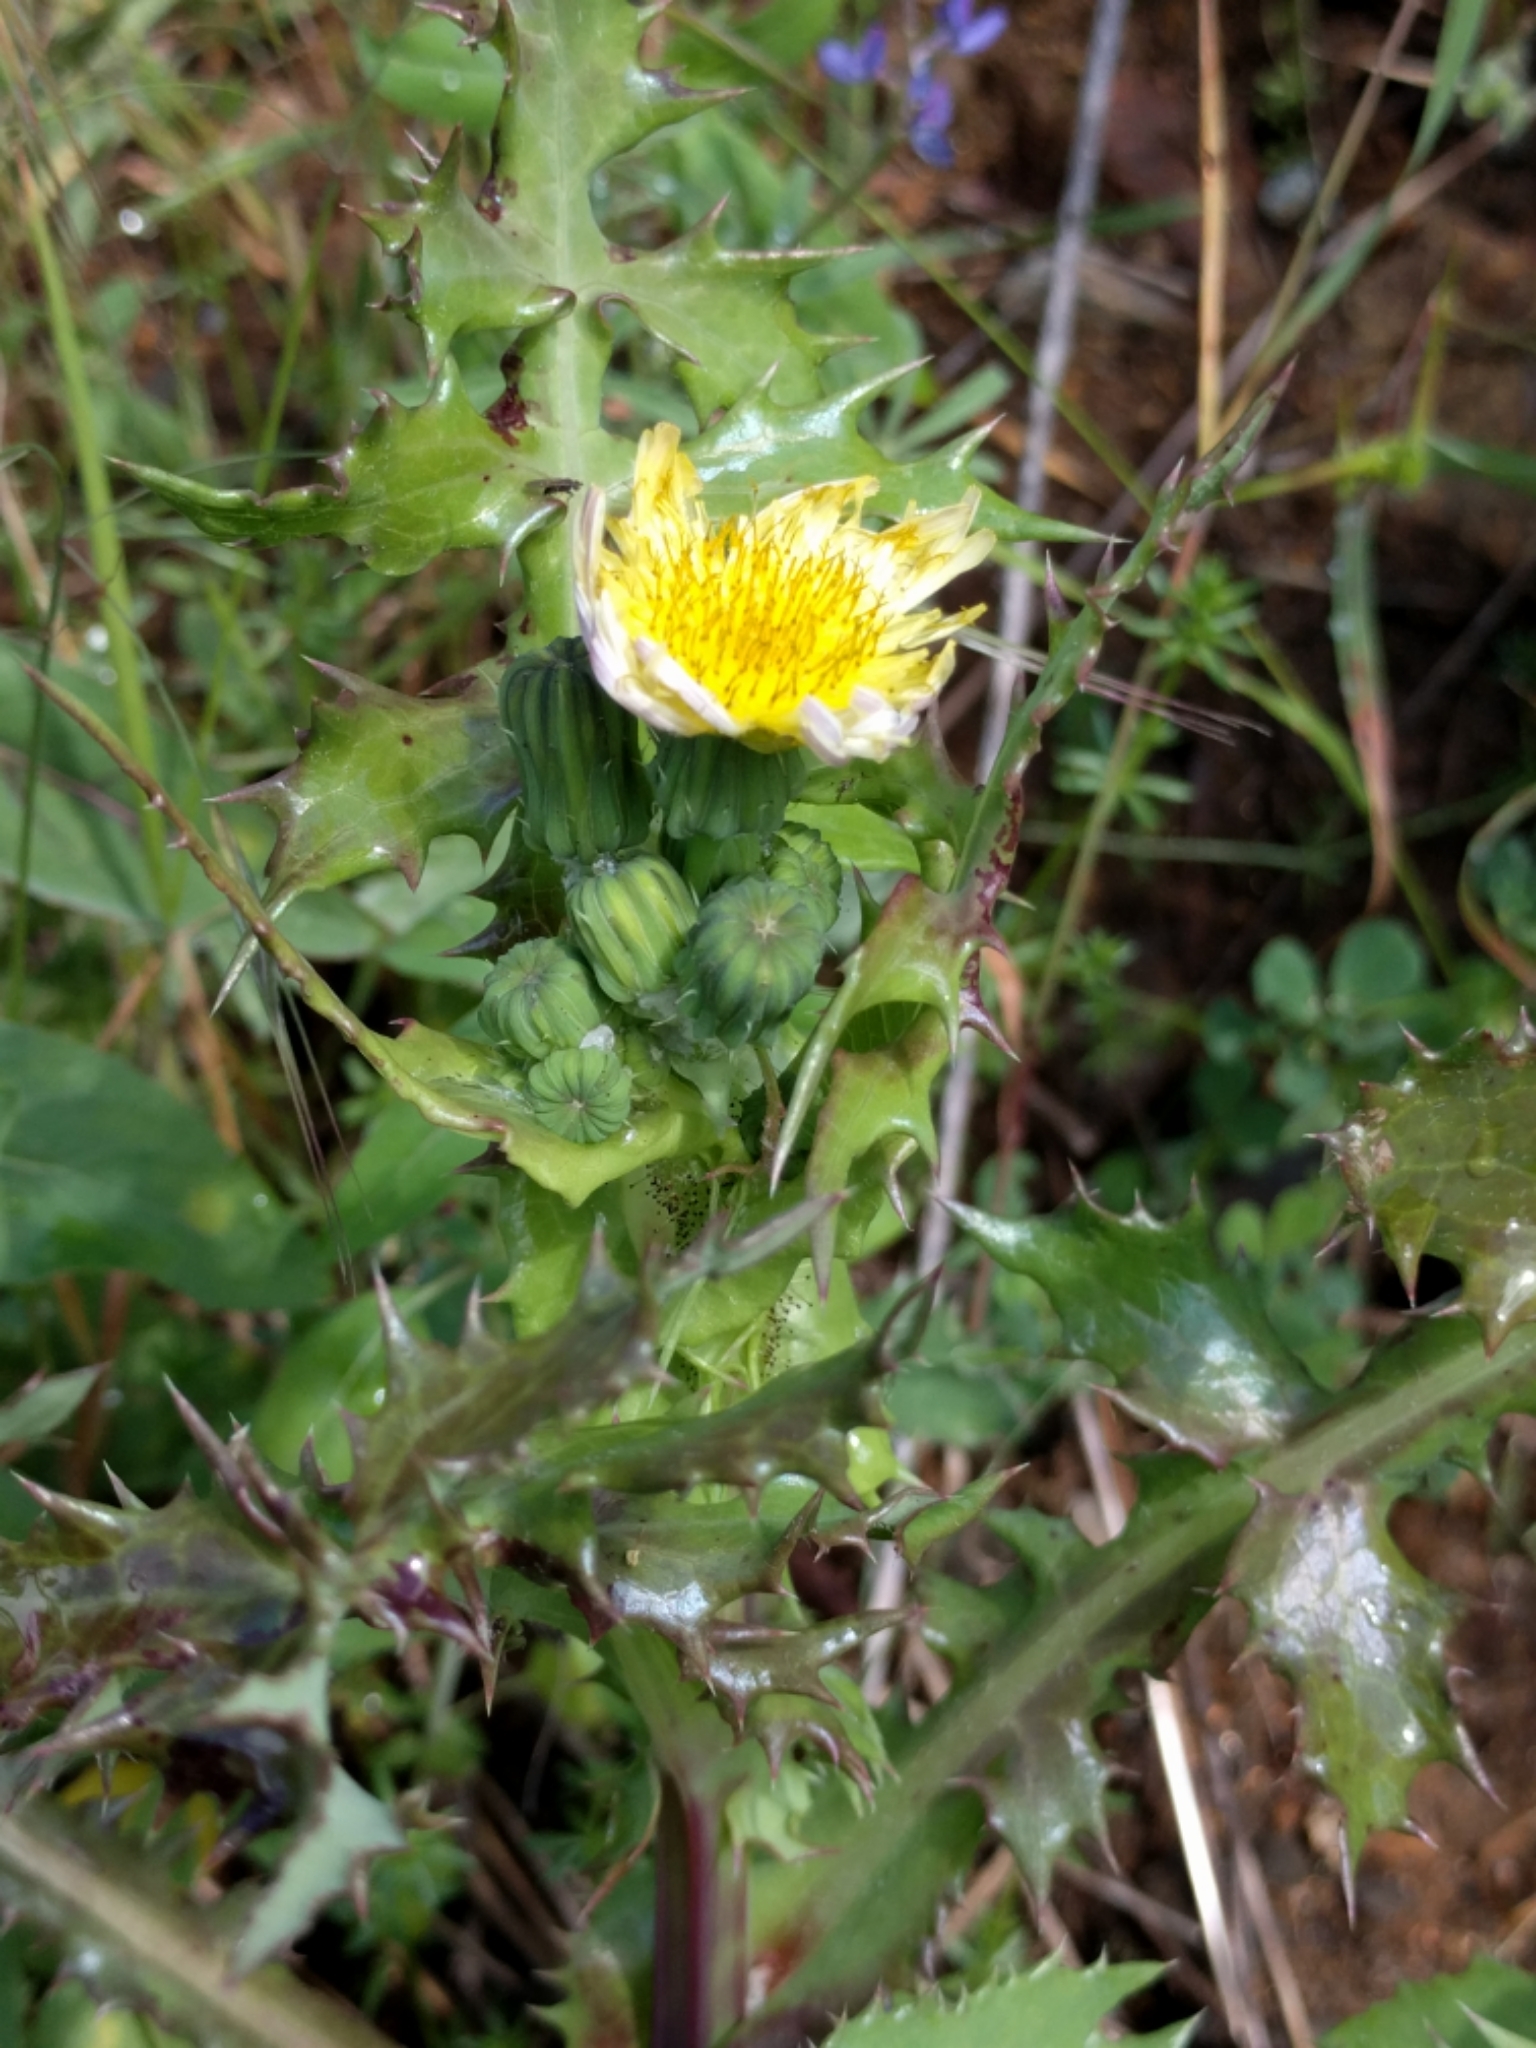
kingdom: Plantae
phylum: Tracheophyta
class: Magnoliopsida
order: Asterales
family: Asteraceae
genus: Sonchus
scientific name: Sonchus asper
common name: Prickly sow-thistle
